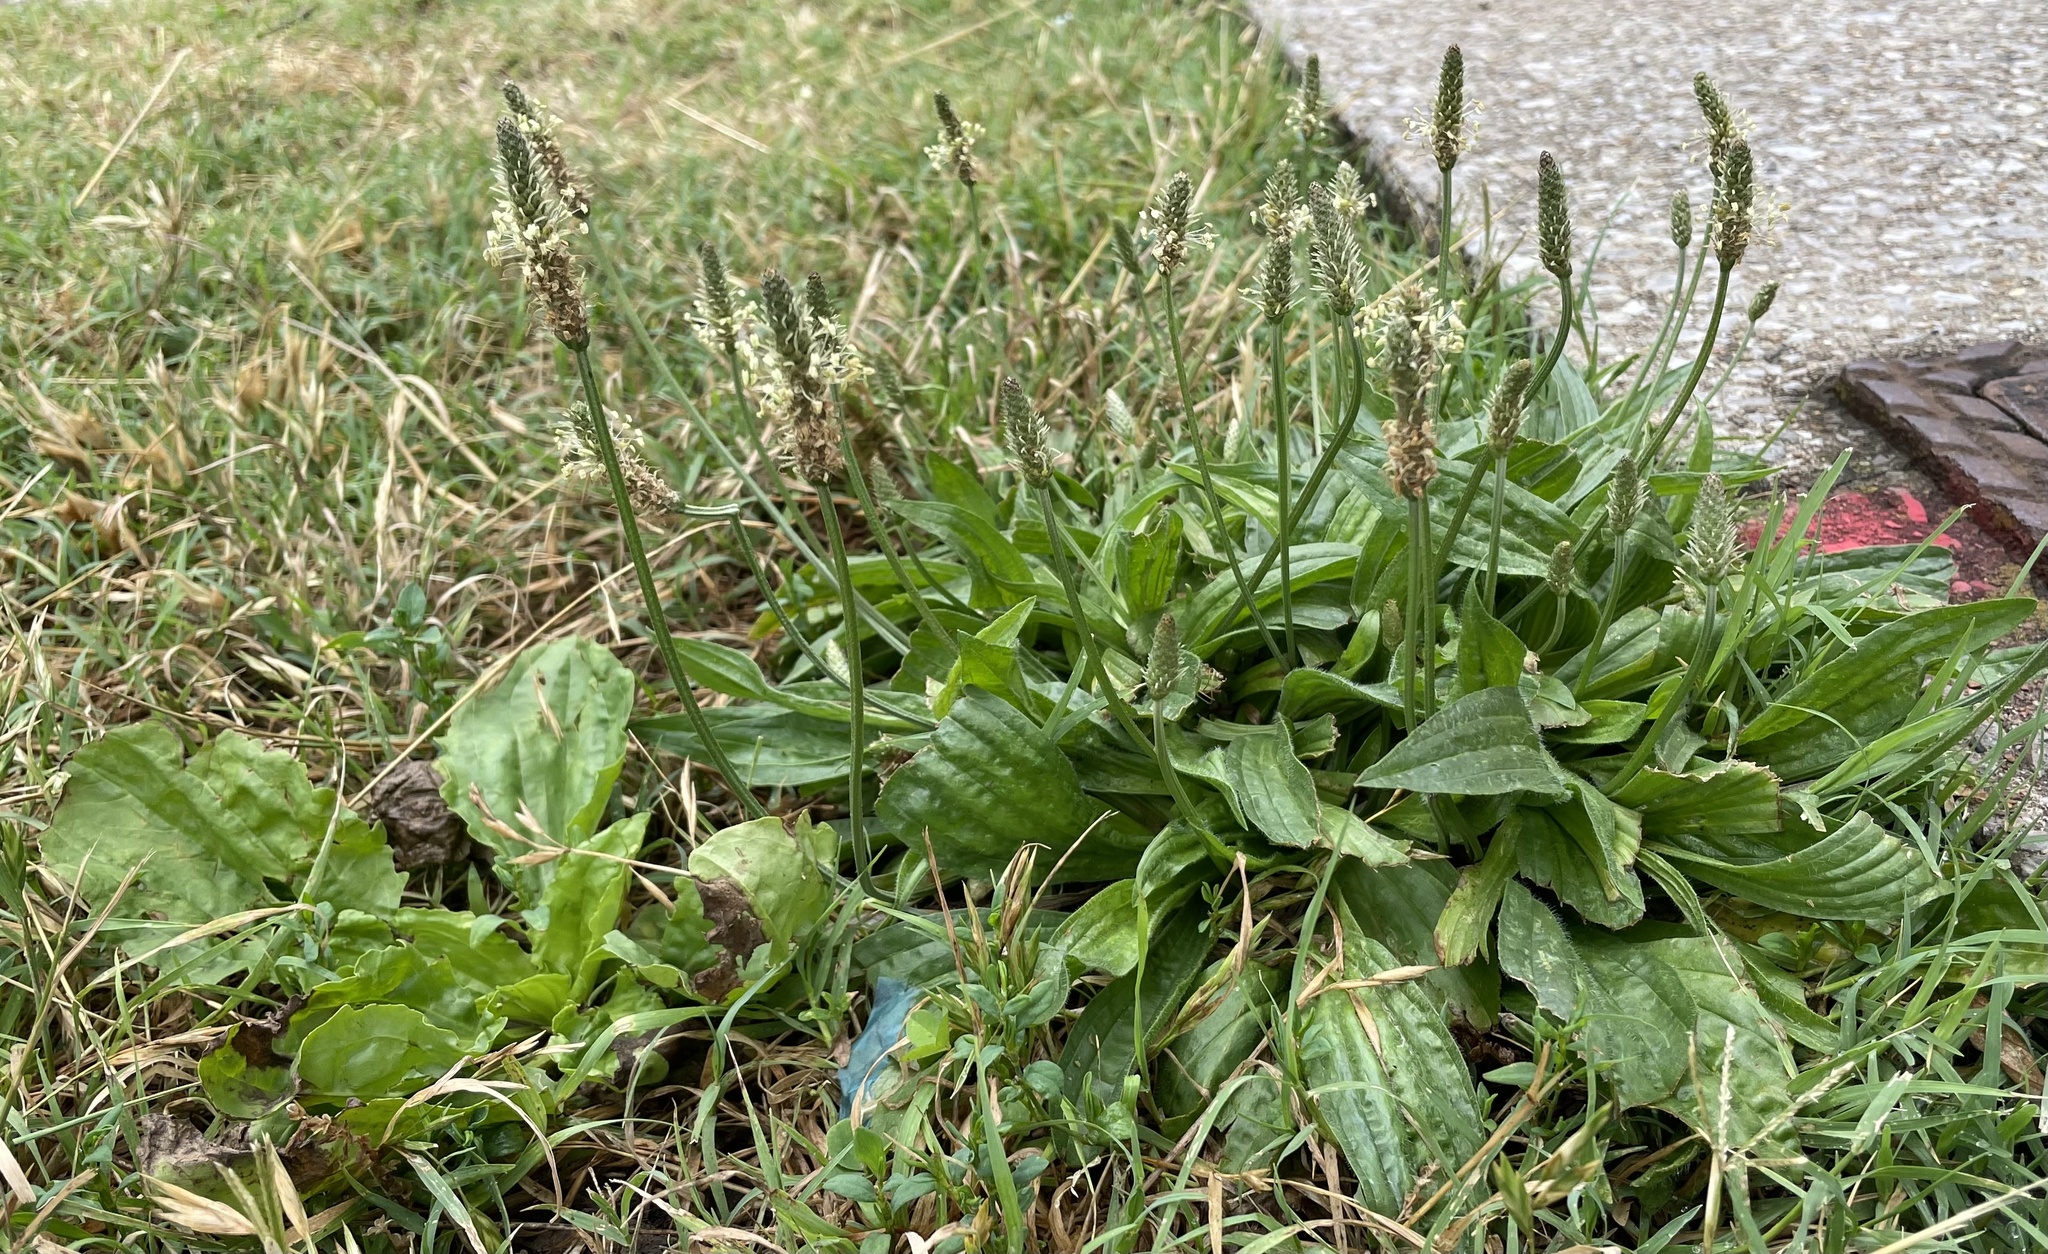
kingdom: Plantae
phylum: Tracheophyta
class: Magnoliopsida
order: Lamiales
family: Plantaginaceae
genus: Plantago
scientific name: Plantago lanceolata
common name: Ribwort plantain
